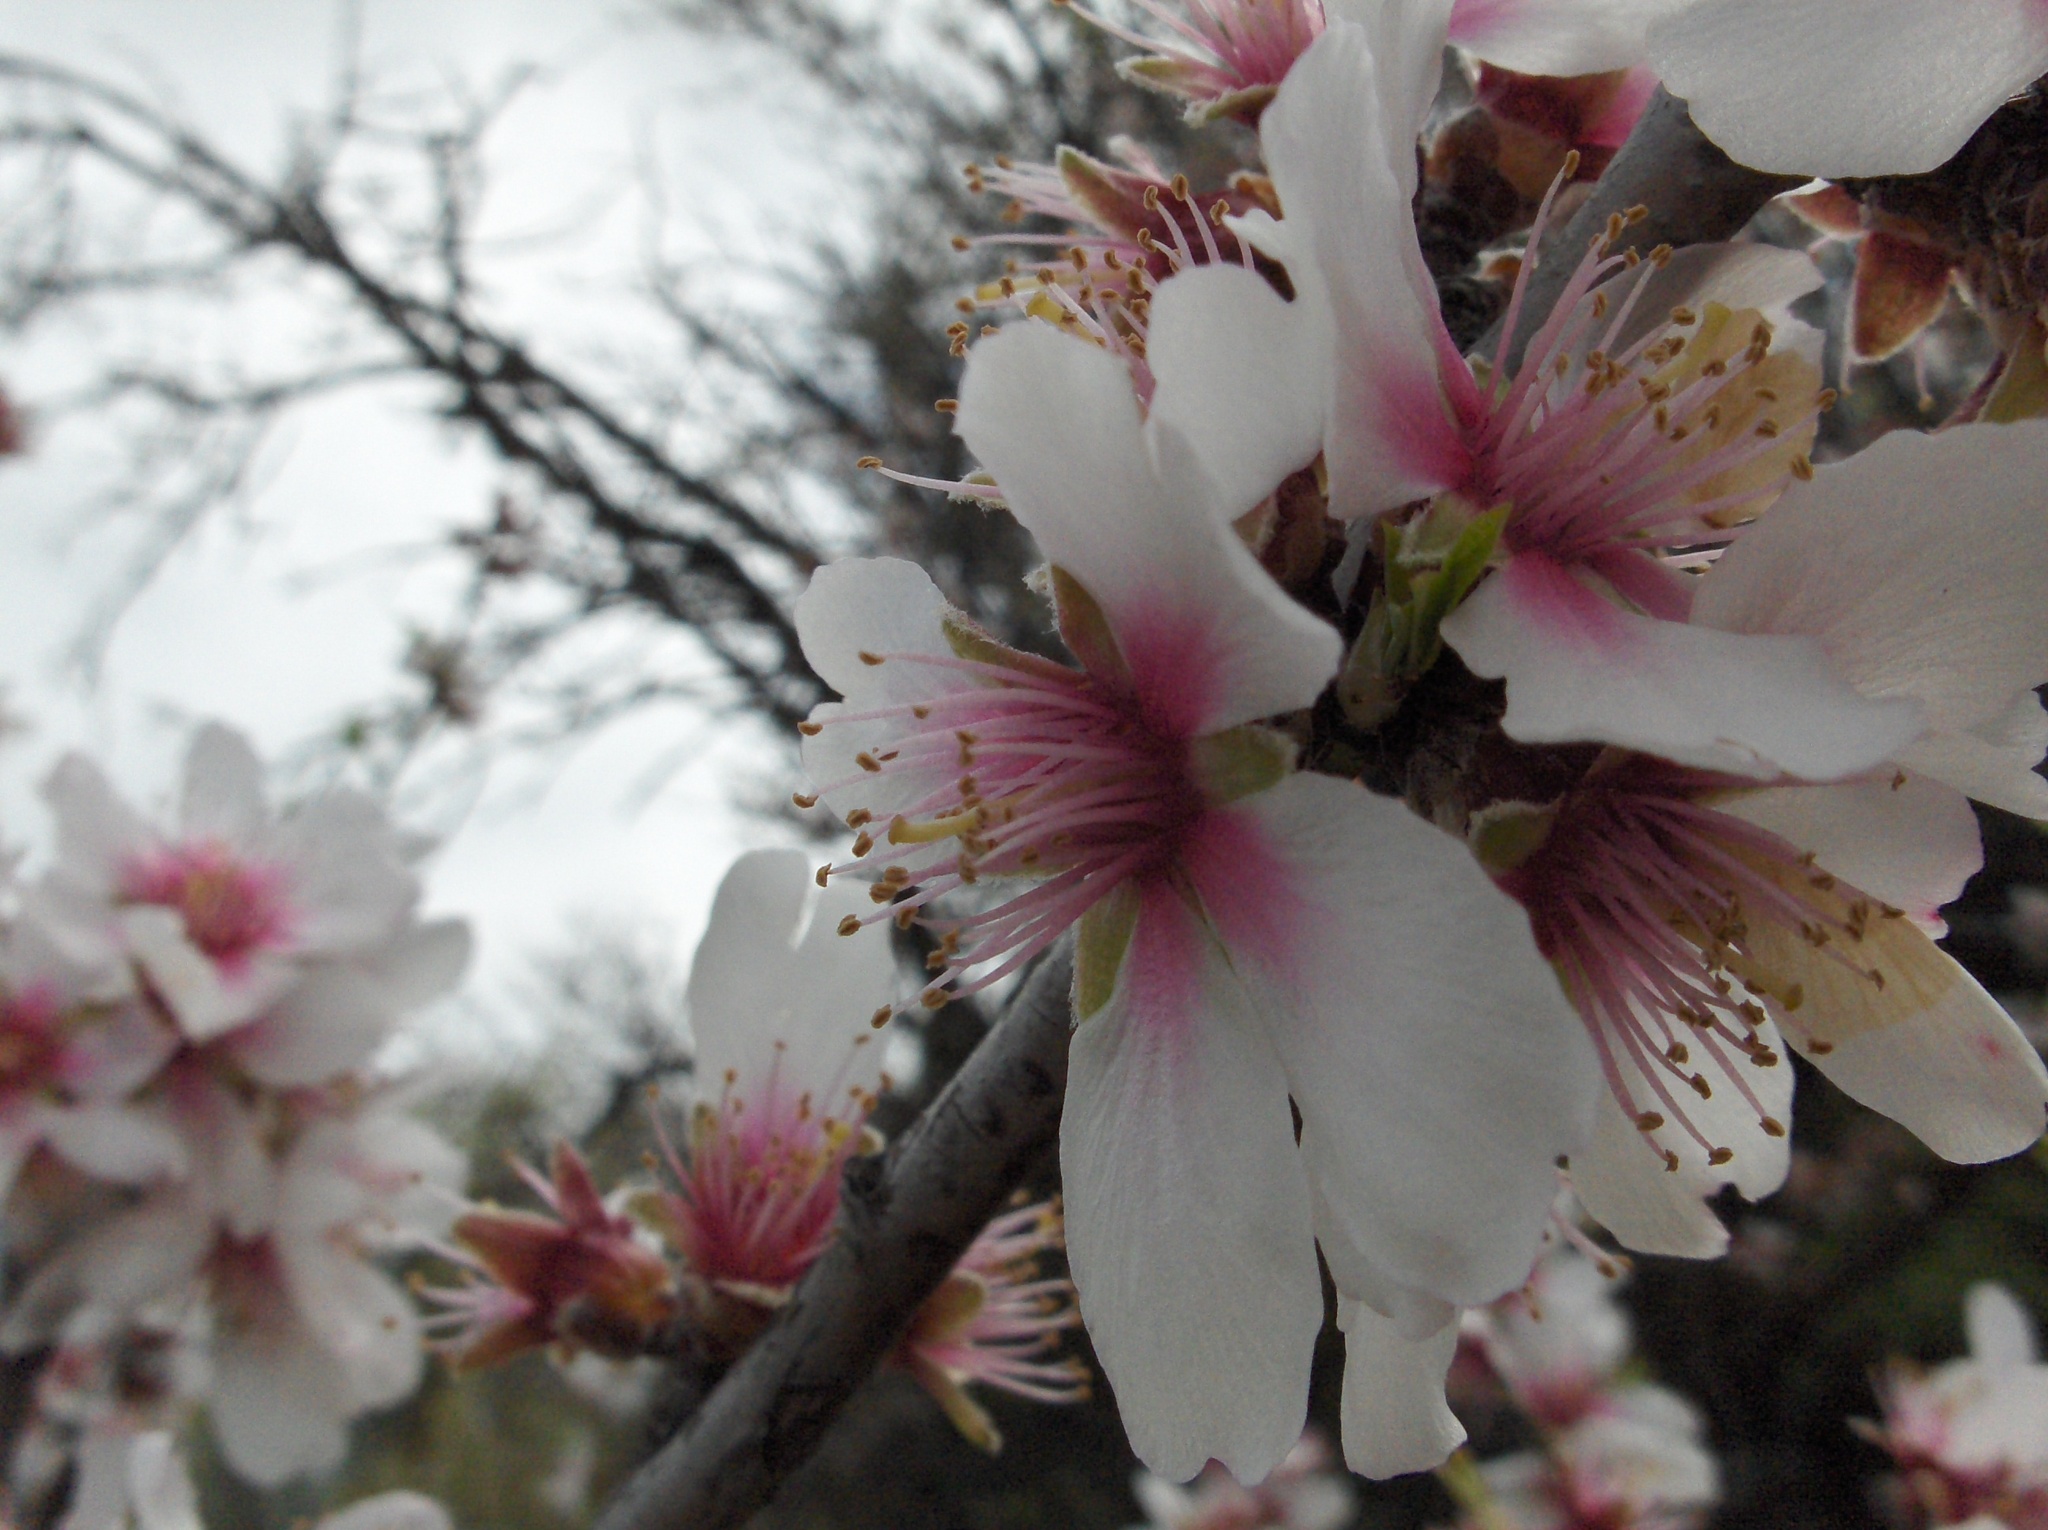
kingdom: Plantae
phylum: Tracheophyta
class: Magnoliopsida
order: Rosales
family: Rosaceae
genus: Prunus
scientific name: Prunus amygdalus
